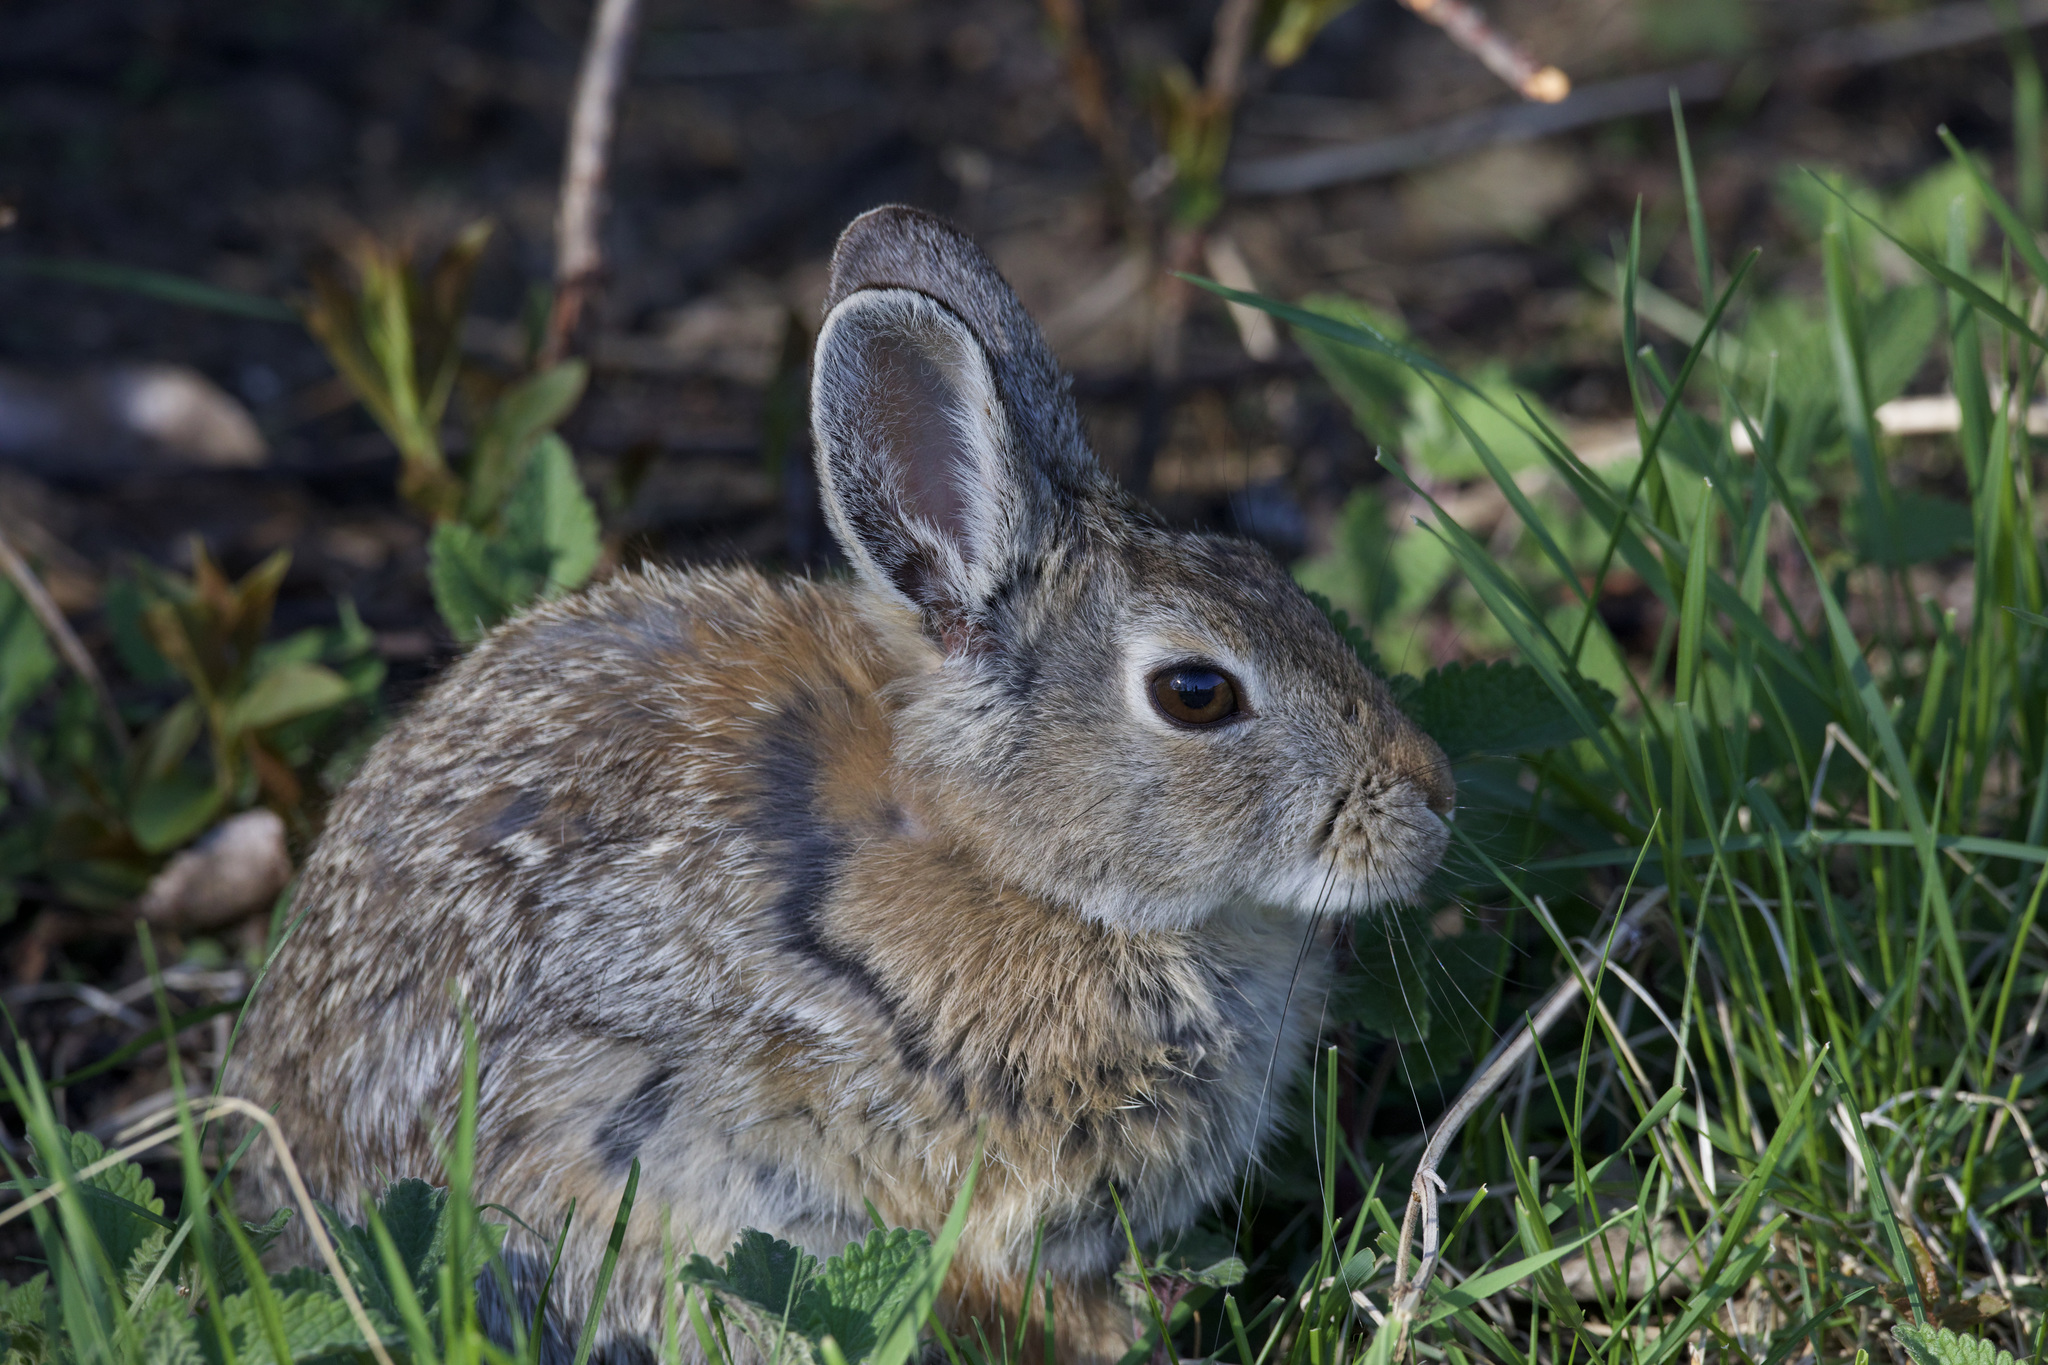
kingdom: Animalia
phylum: Chordata
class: Mammalia
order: Lagomorpha
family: Leporidae
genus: Sylvilagus
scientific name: Sylvilagus nuttallii
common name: Mountain cottontail
